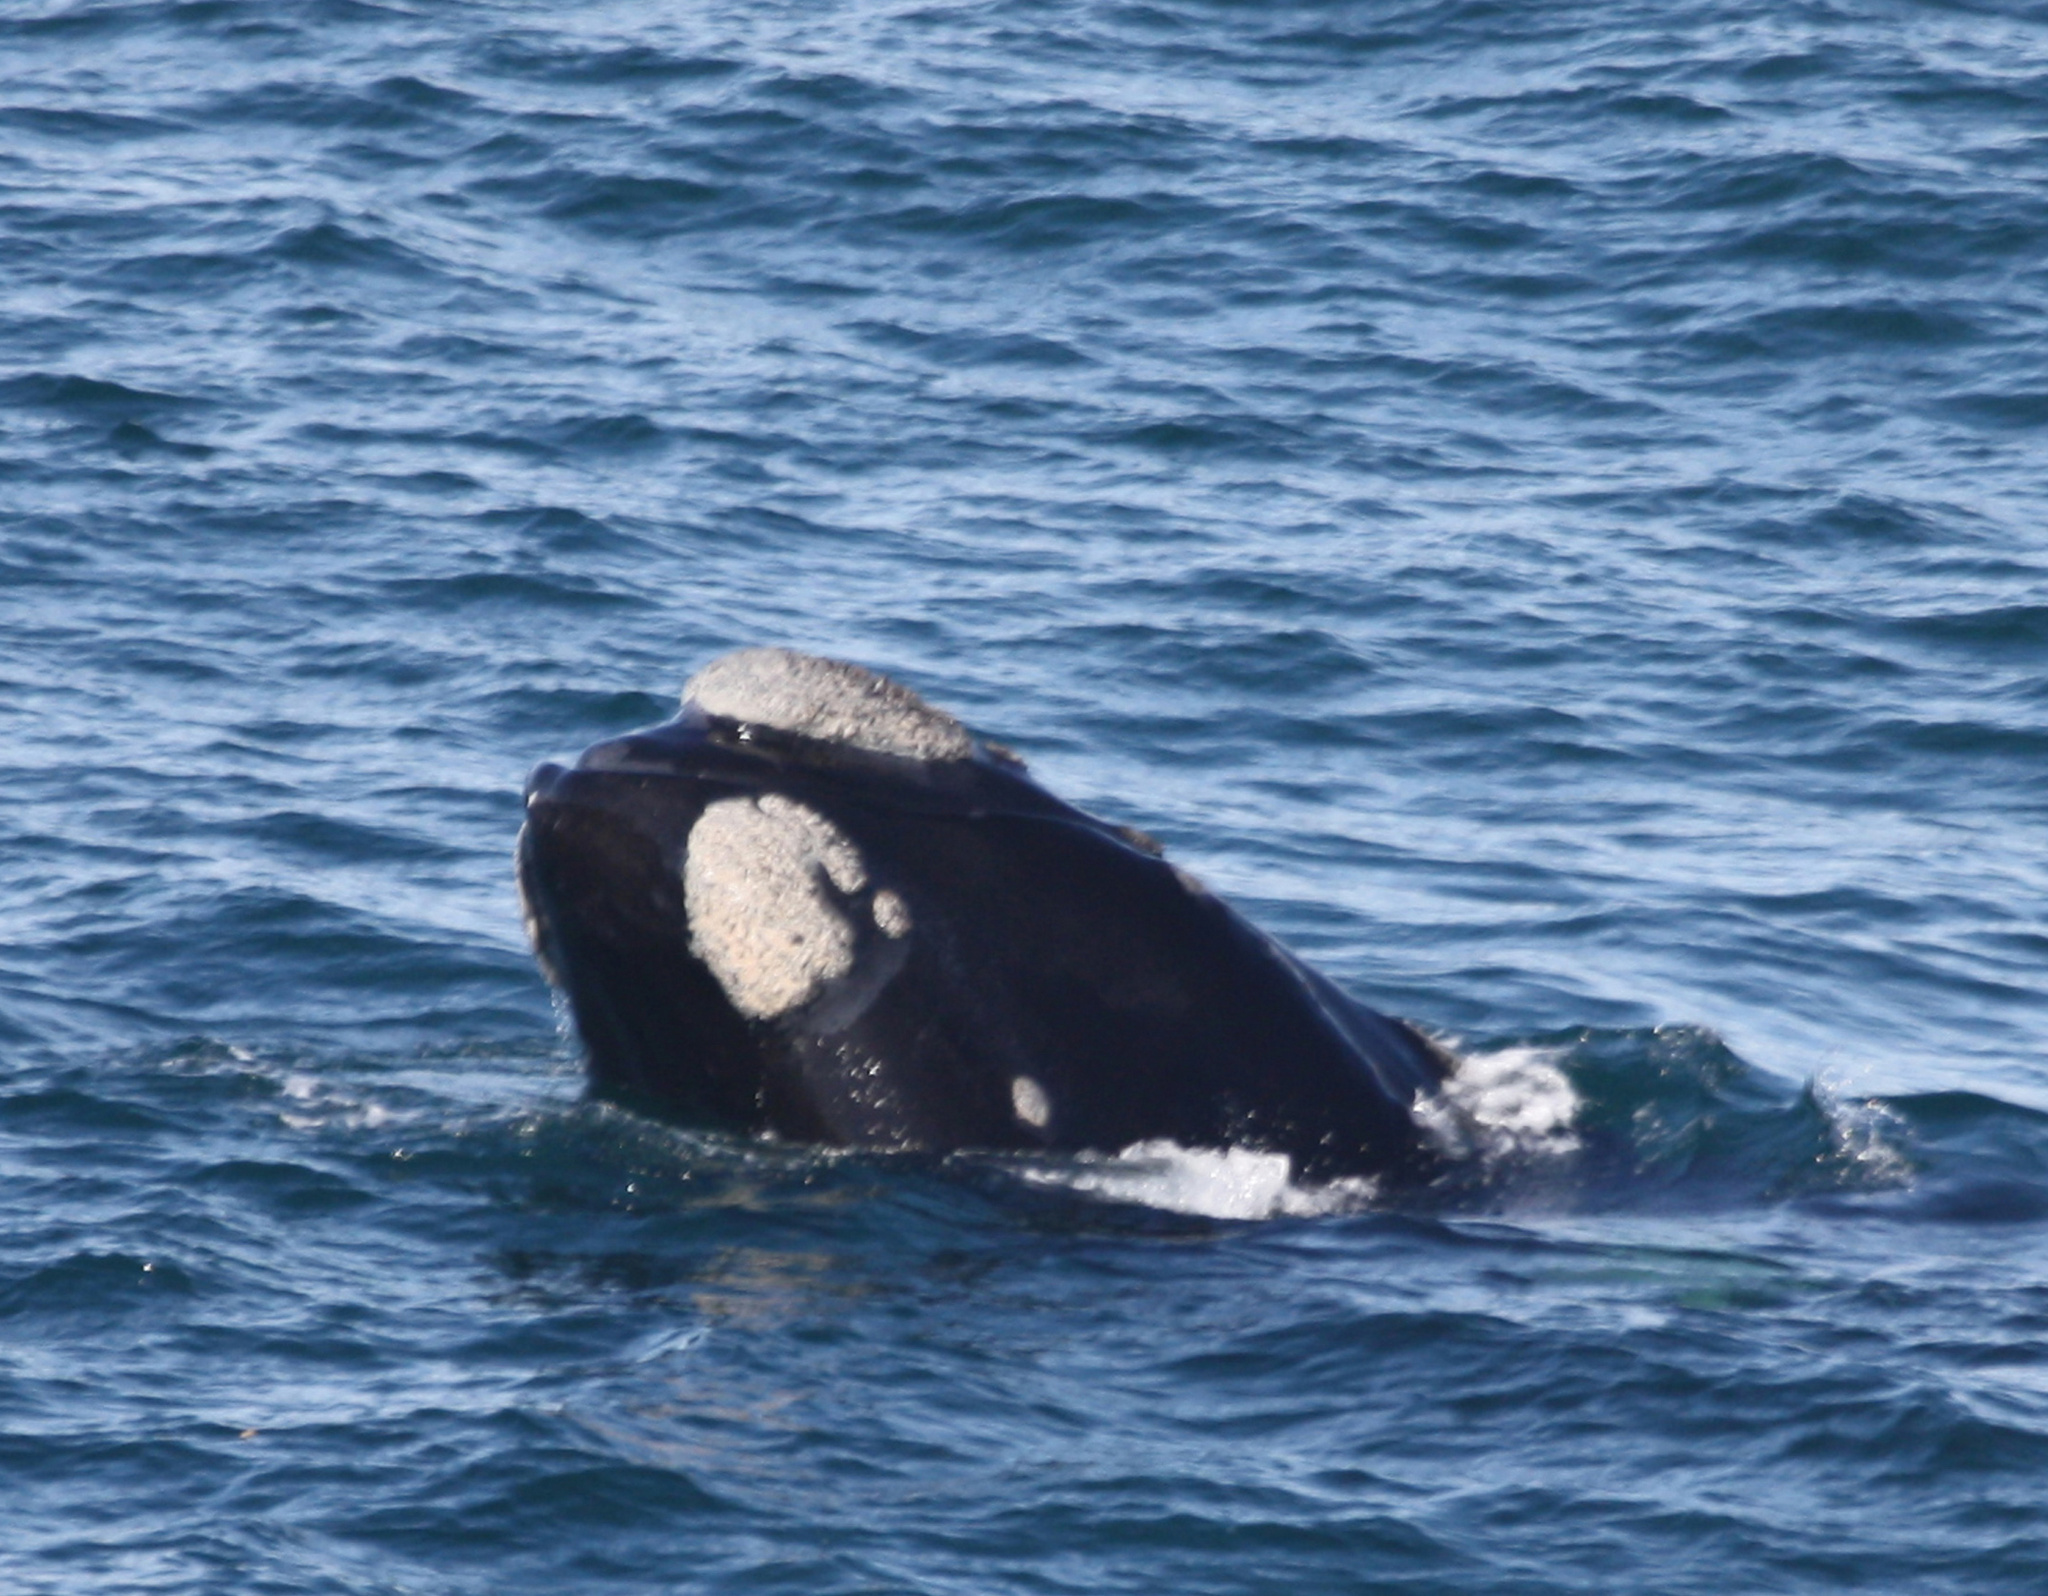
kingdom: Animalia
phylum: Chordata
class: Mammalia
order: Cetacea
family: Balaenidae
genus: Eubalaena
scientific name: Eubalaena australis
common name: Southern right whale
